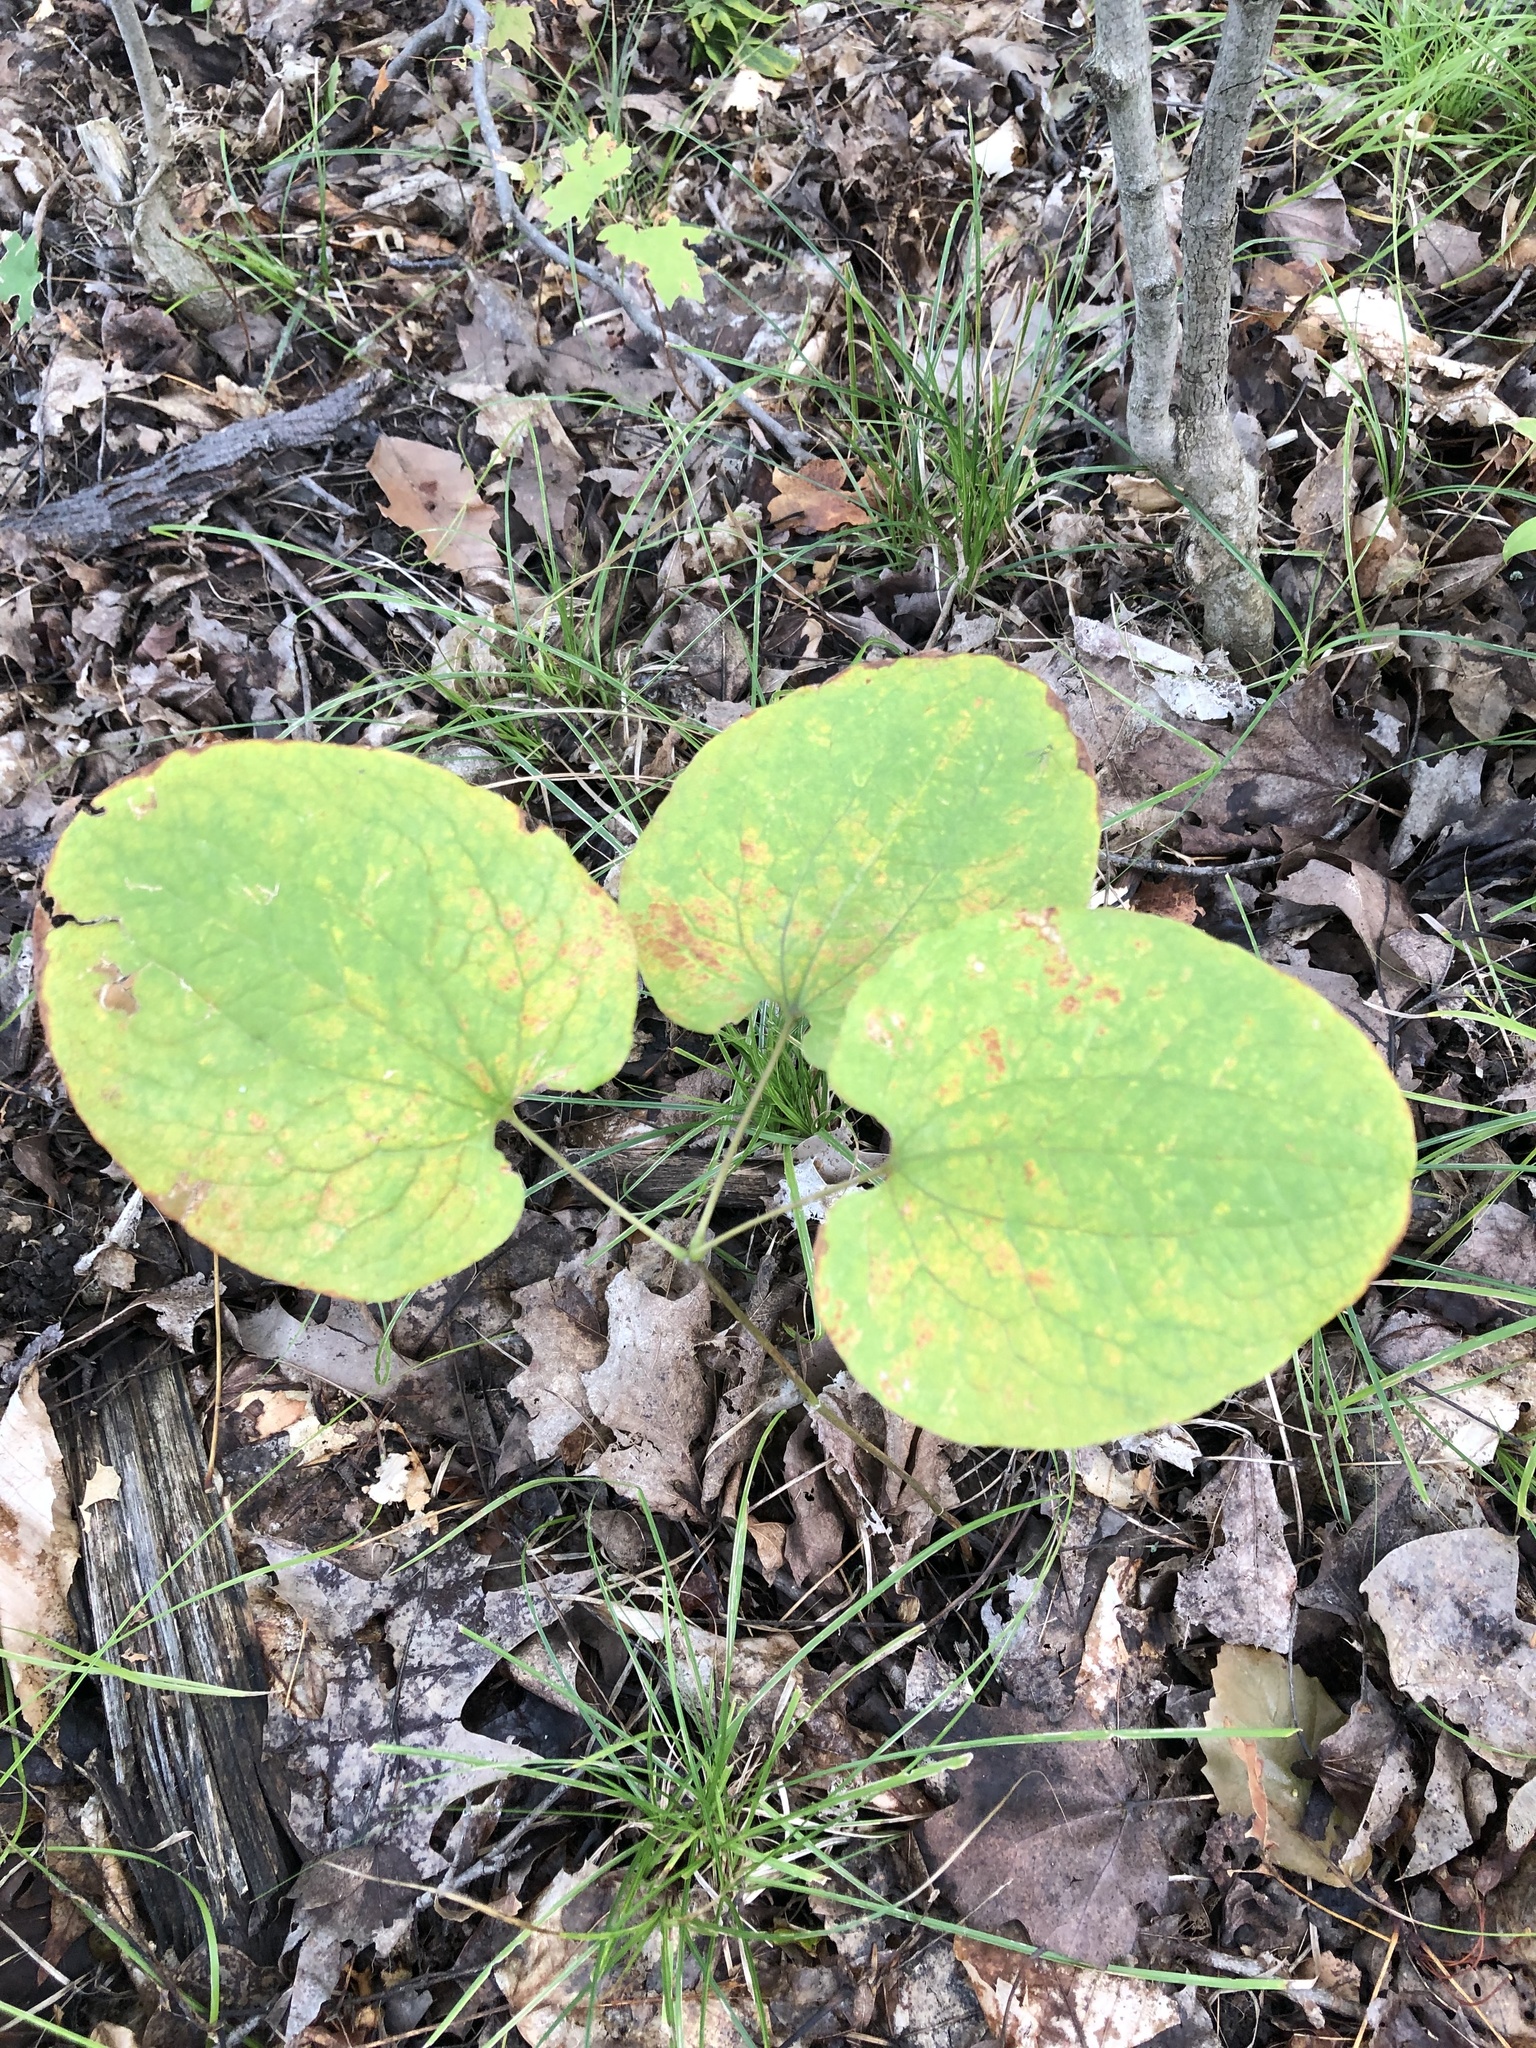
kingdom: Plantae
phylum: Tracheophyta
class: Liliopsida
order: Liliales
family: Smilacaceae
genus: Smilax
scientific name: Smilax herbacea
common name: Jacob's-ladder
